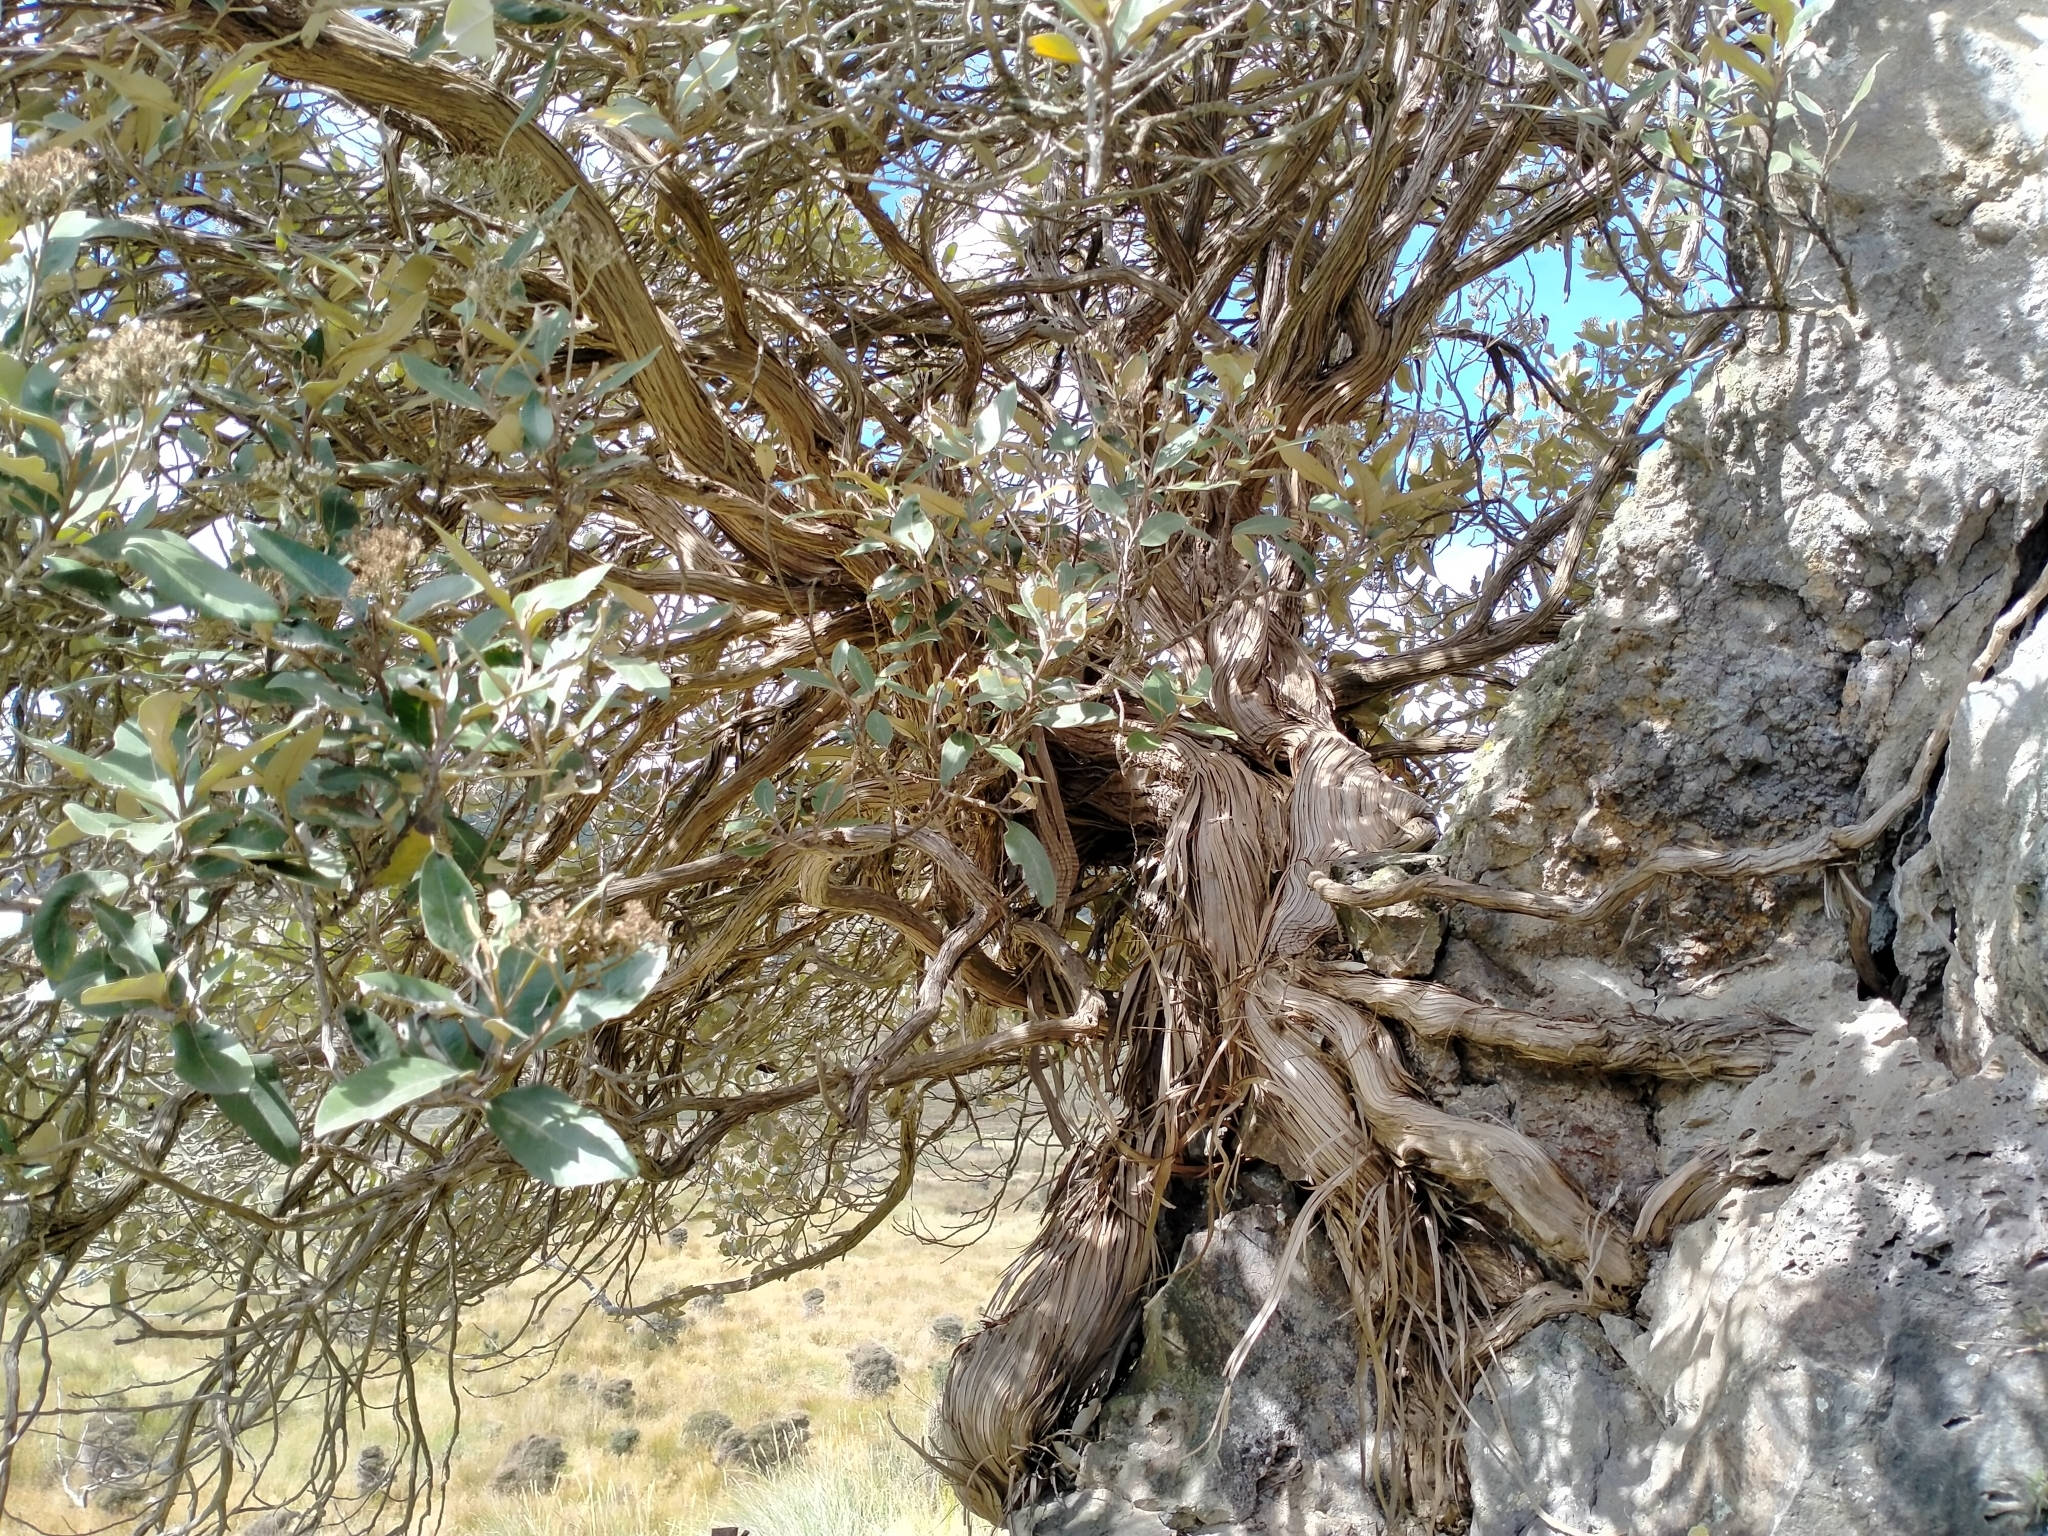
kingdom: Plantae
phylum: Tracheophyta
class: Magnoliopsida
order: Asterales
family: Asteraceae
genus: Olearia
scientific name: Olearia avicenniifolia
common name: Mangrove-leaf daisybush
